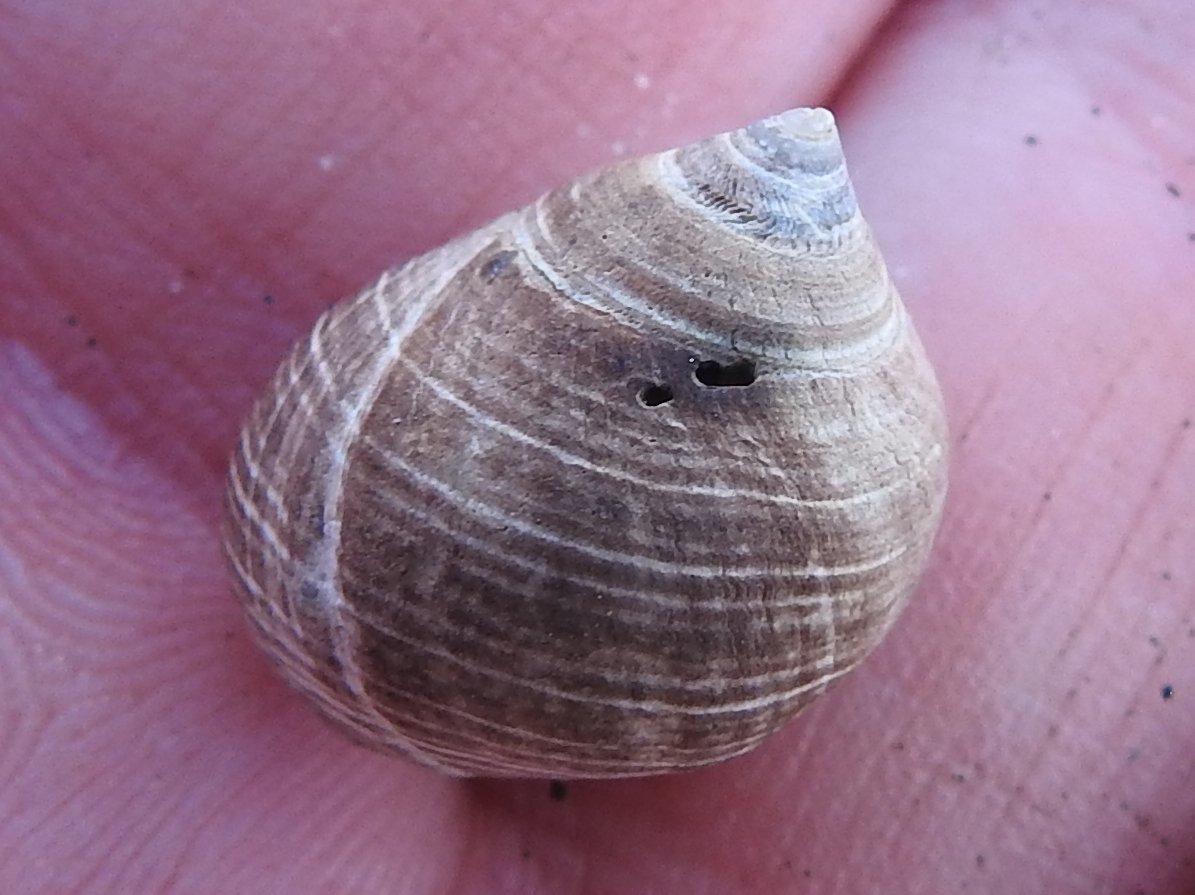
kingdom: Animalia
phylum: Mollusca
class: Gastropoda
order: Littorinimorpha
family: Littorinidae
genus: Littorina
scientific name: Littorina littorea
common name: Common periwinkle
